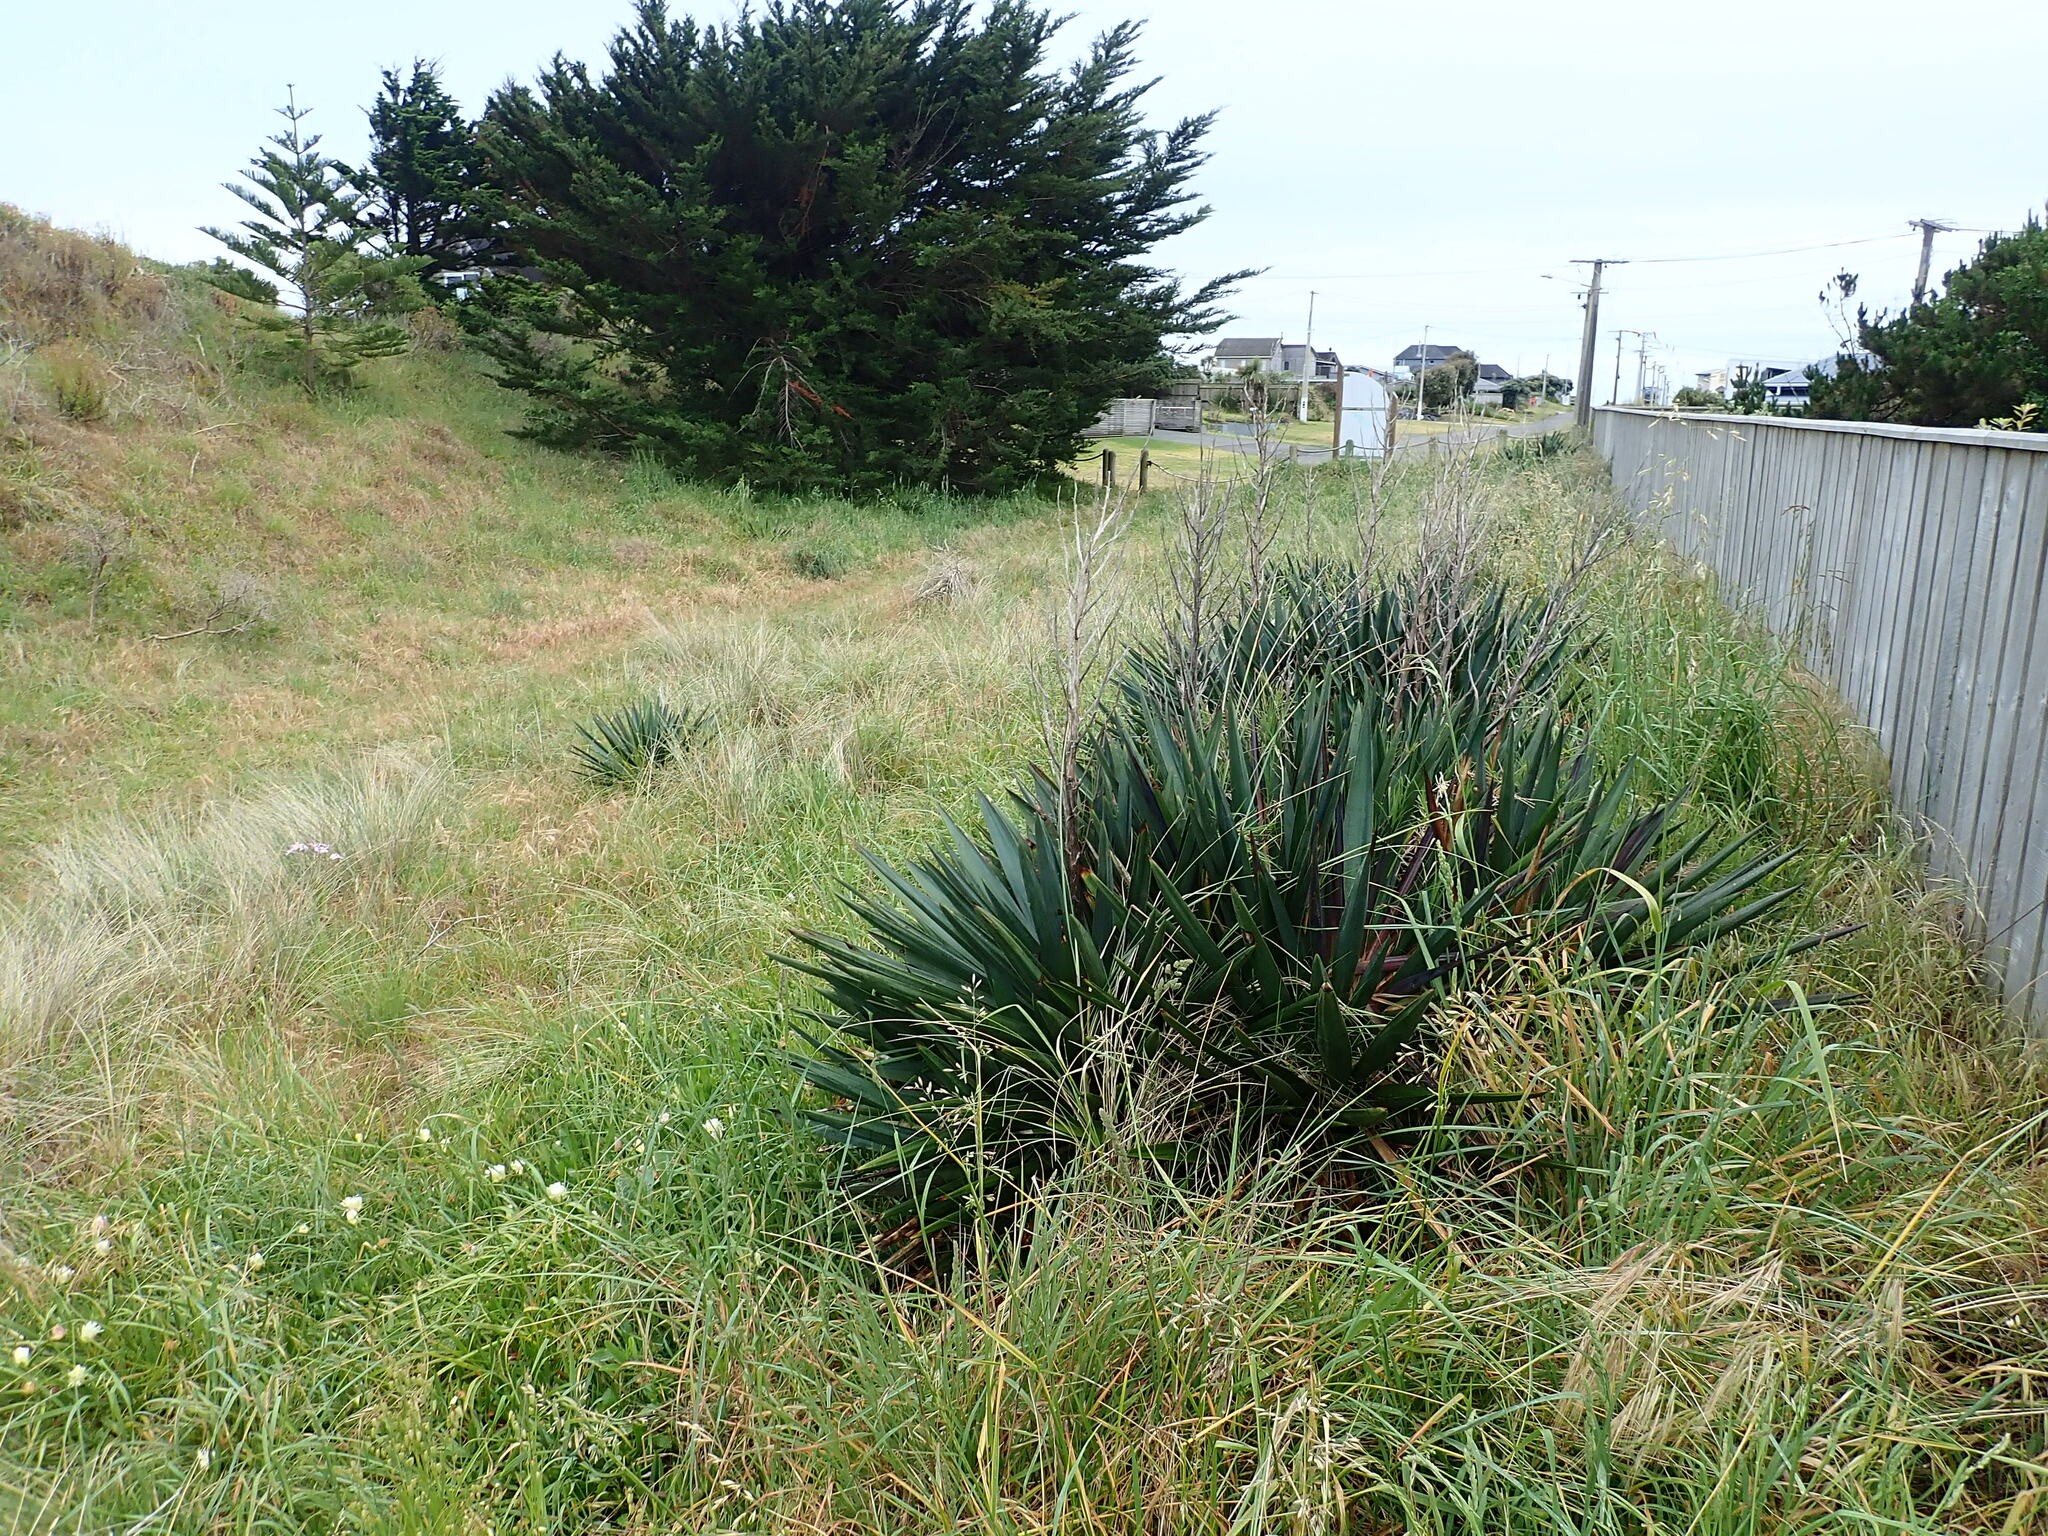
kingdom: Plantae
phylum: Tracheophyta
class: Liliopsida
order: Asparagales
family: Asparagaceae
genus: Yucca
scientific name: Yucca gloriosa
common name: Spanish-dagger
